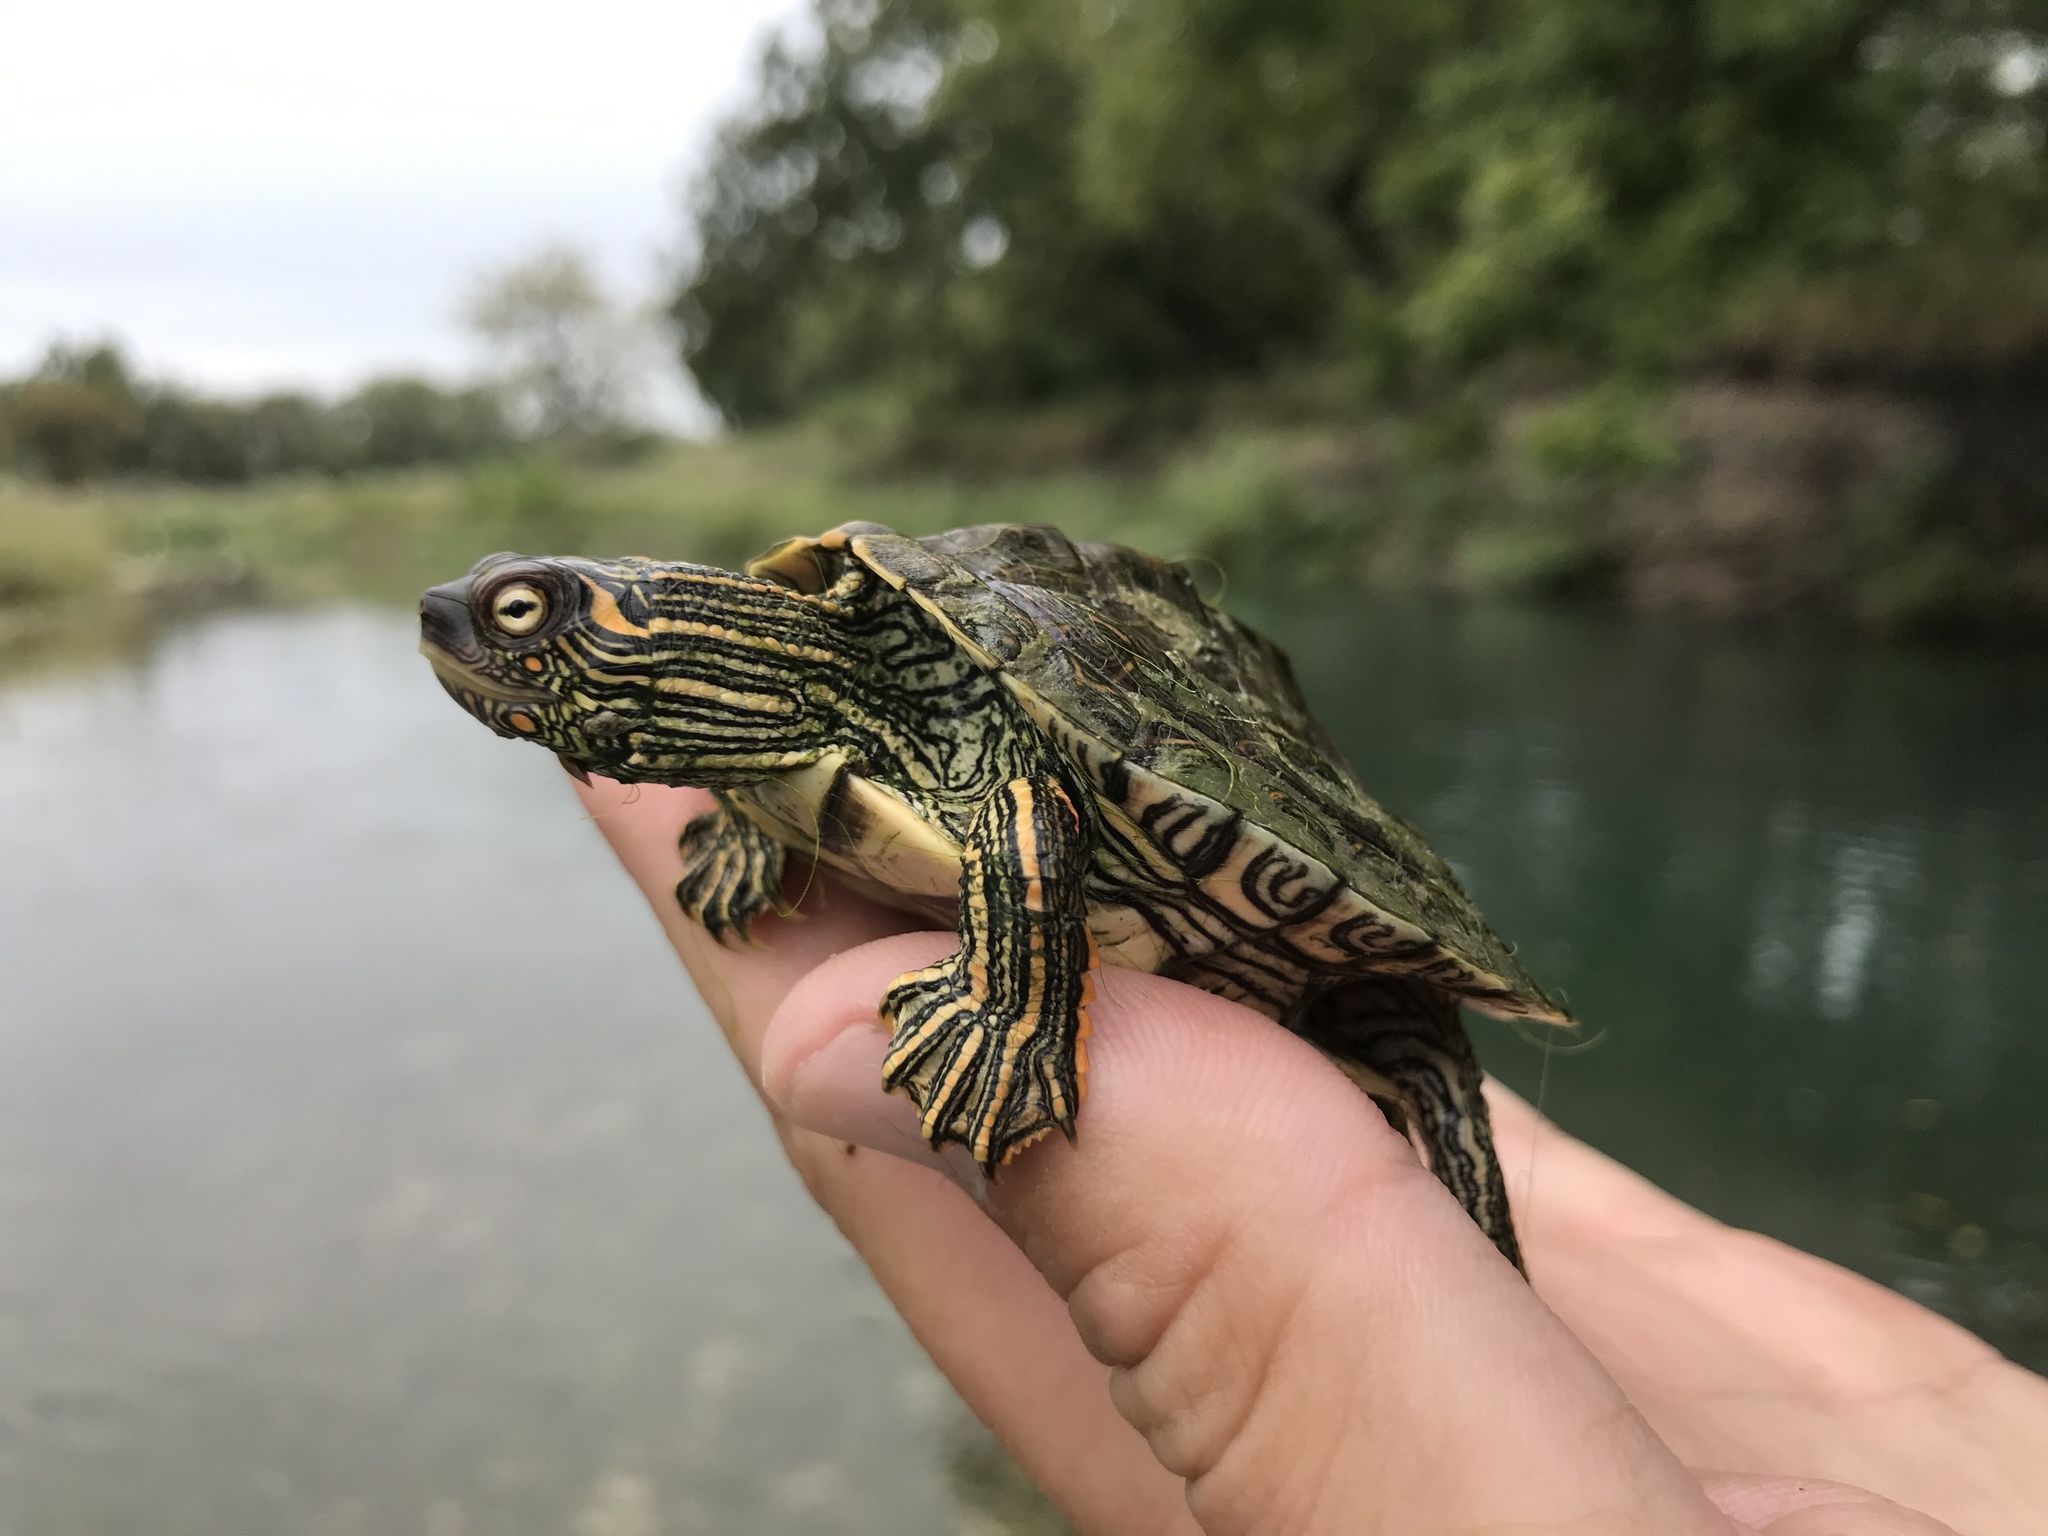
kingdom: Animalia
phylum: Chordata
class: Testudines
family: Emydidae
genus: Graptemys
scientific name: Graptemys versa
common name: Texas map turtle
